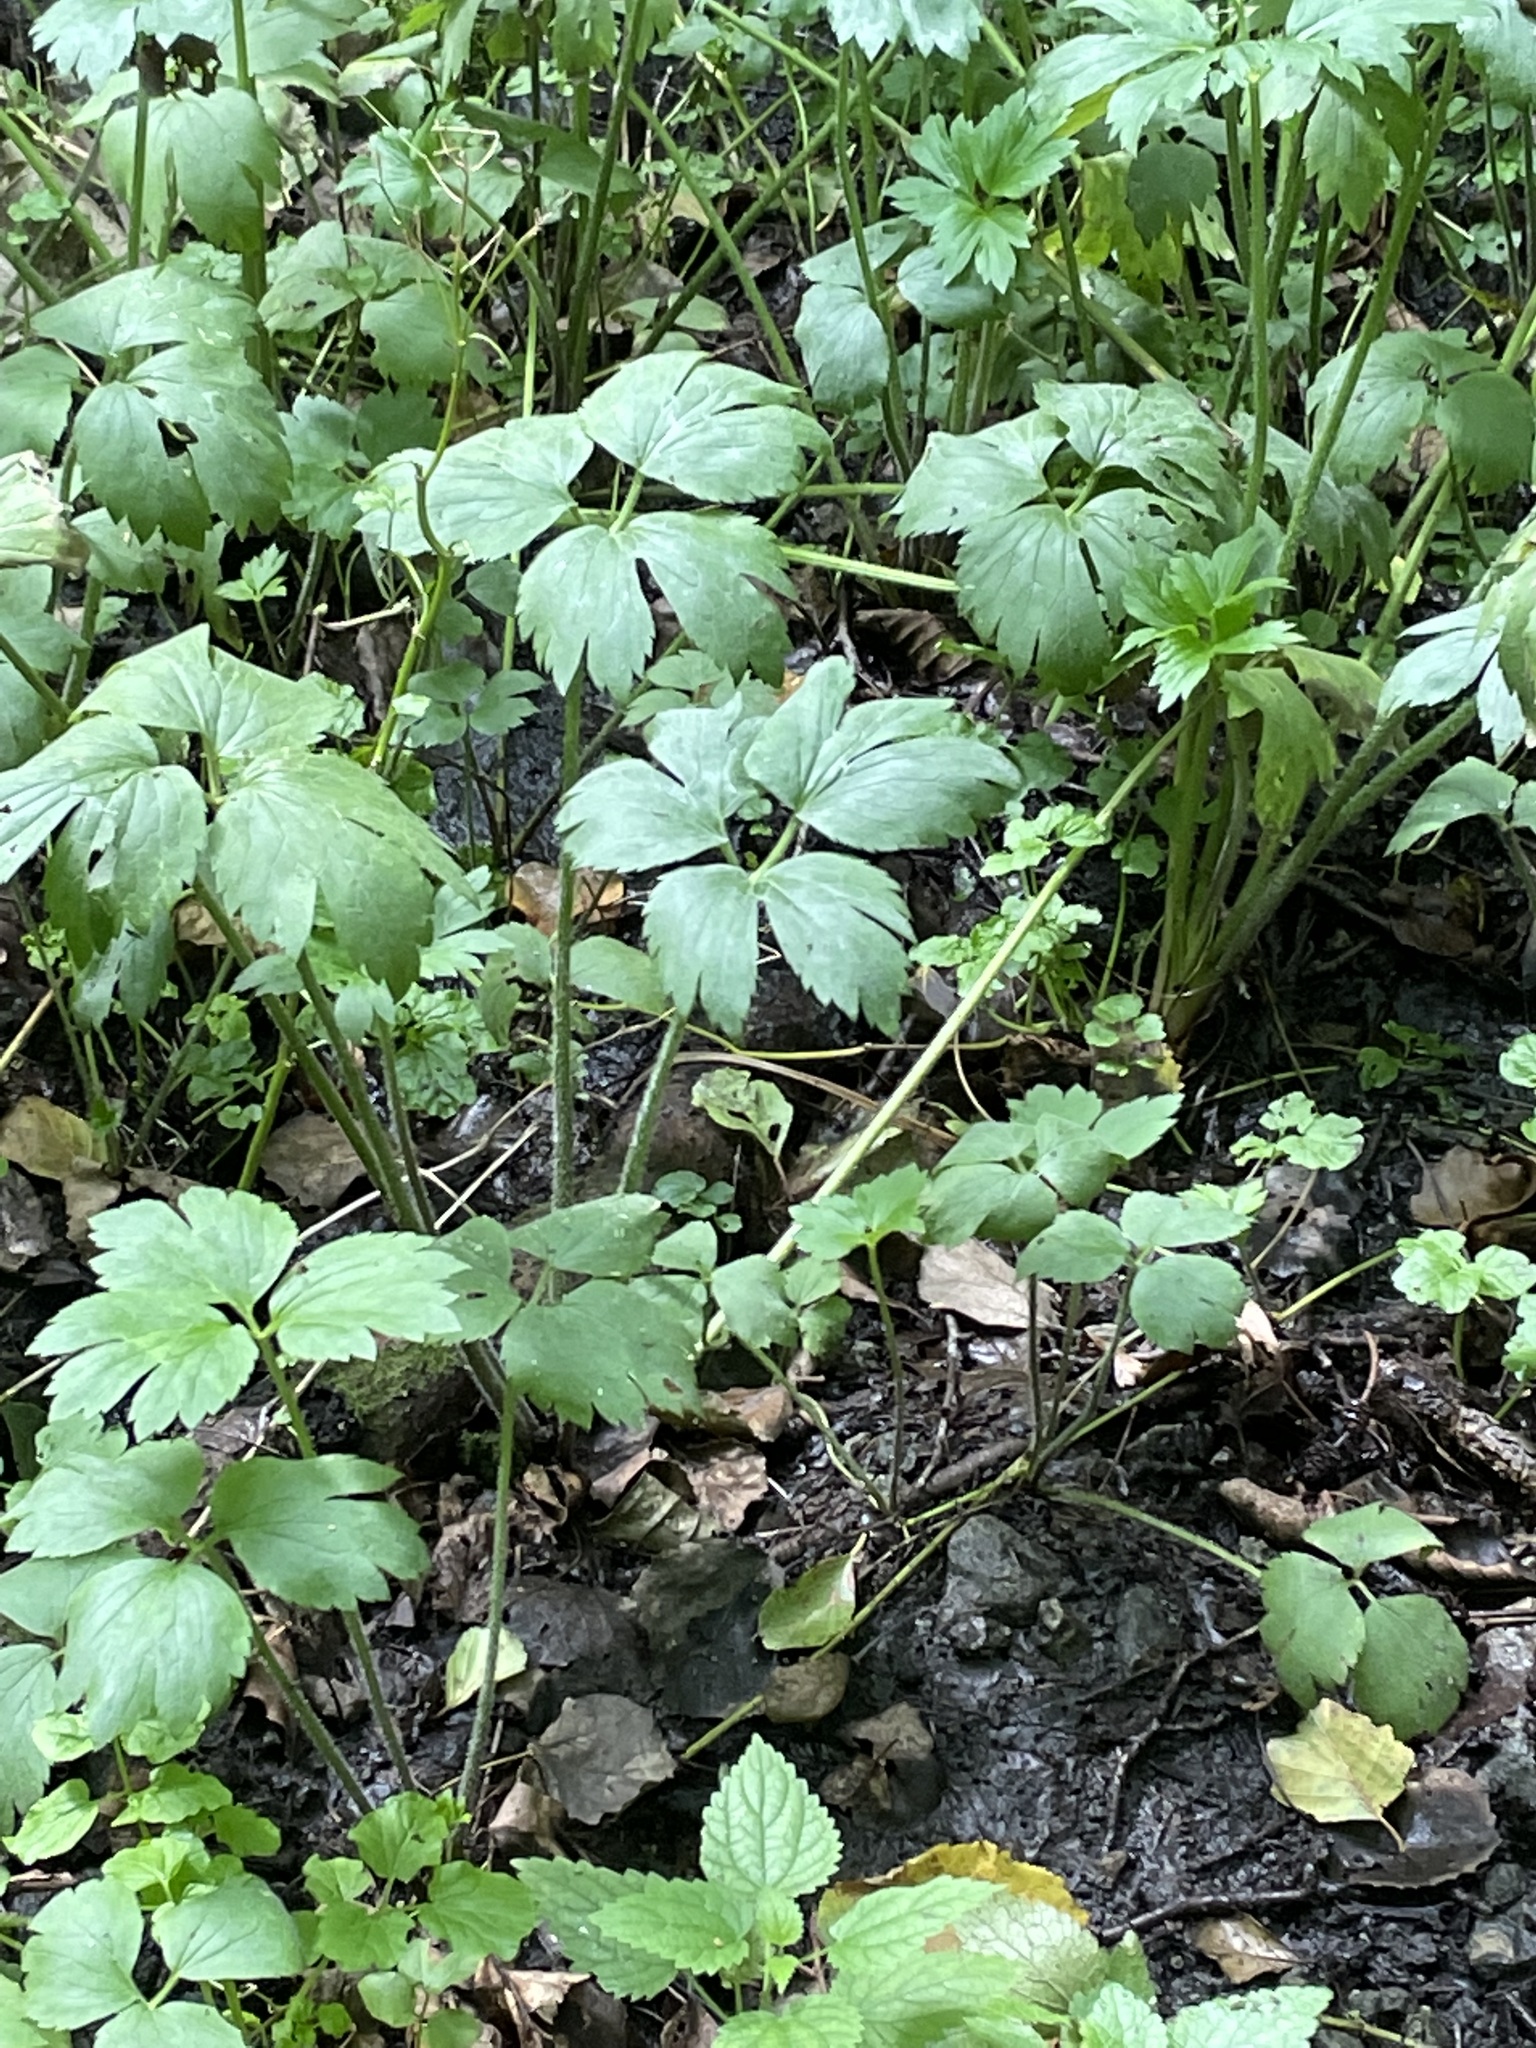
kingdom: Plantae
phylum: Tracheophyta
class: Magnoliopsida
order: Ranunculales
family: Ranunculaceae
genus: Ranunculus
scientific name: Ranunculus repens
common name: Creeping buttercup
